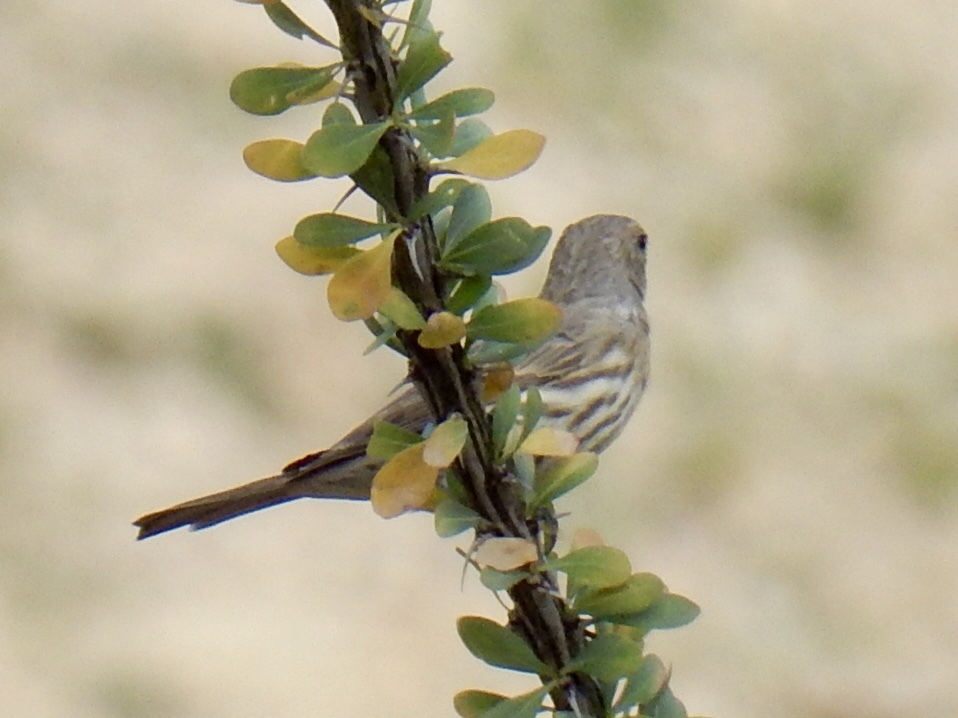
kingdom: Animalia
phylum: Chordata
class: Aves
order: Passeriformes
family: Fringillidae
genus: Haemorhous
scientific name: Haemorhous mexicanus
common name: House finch
